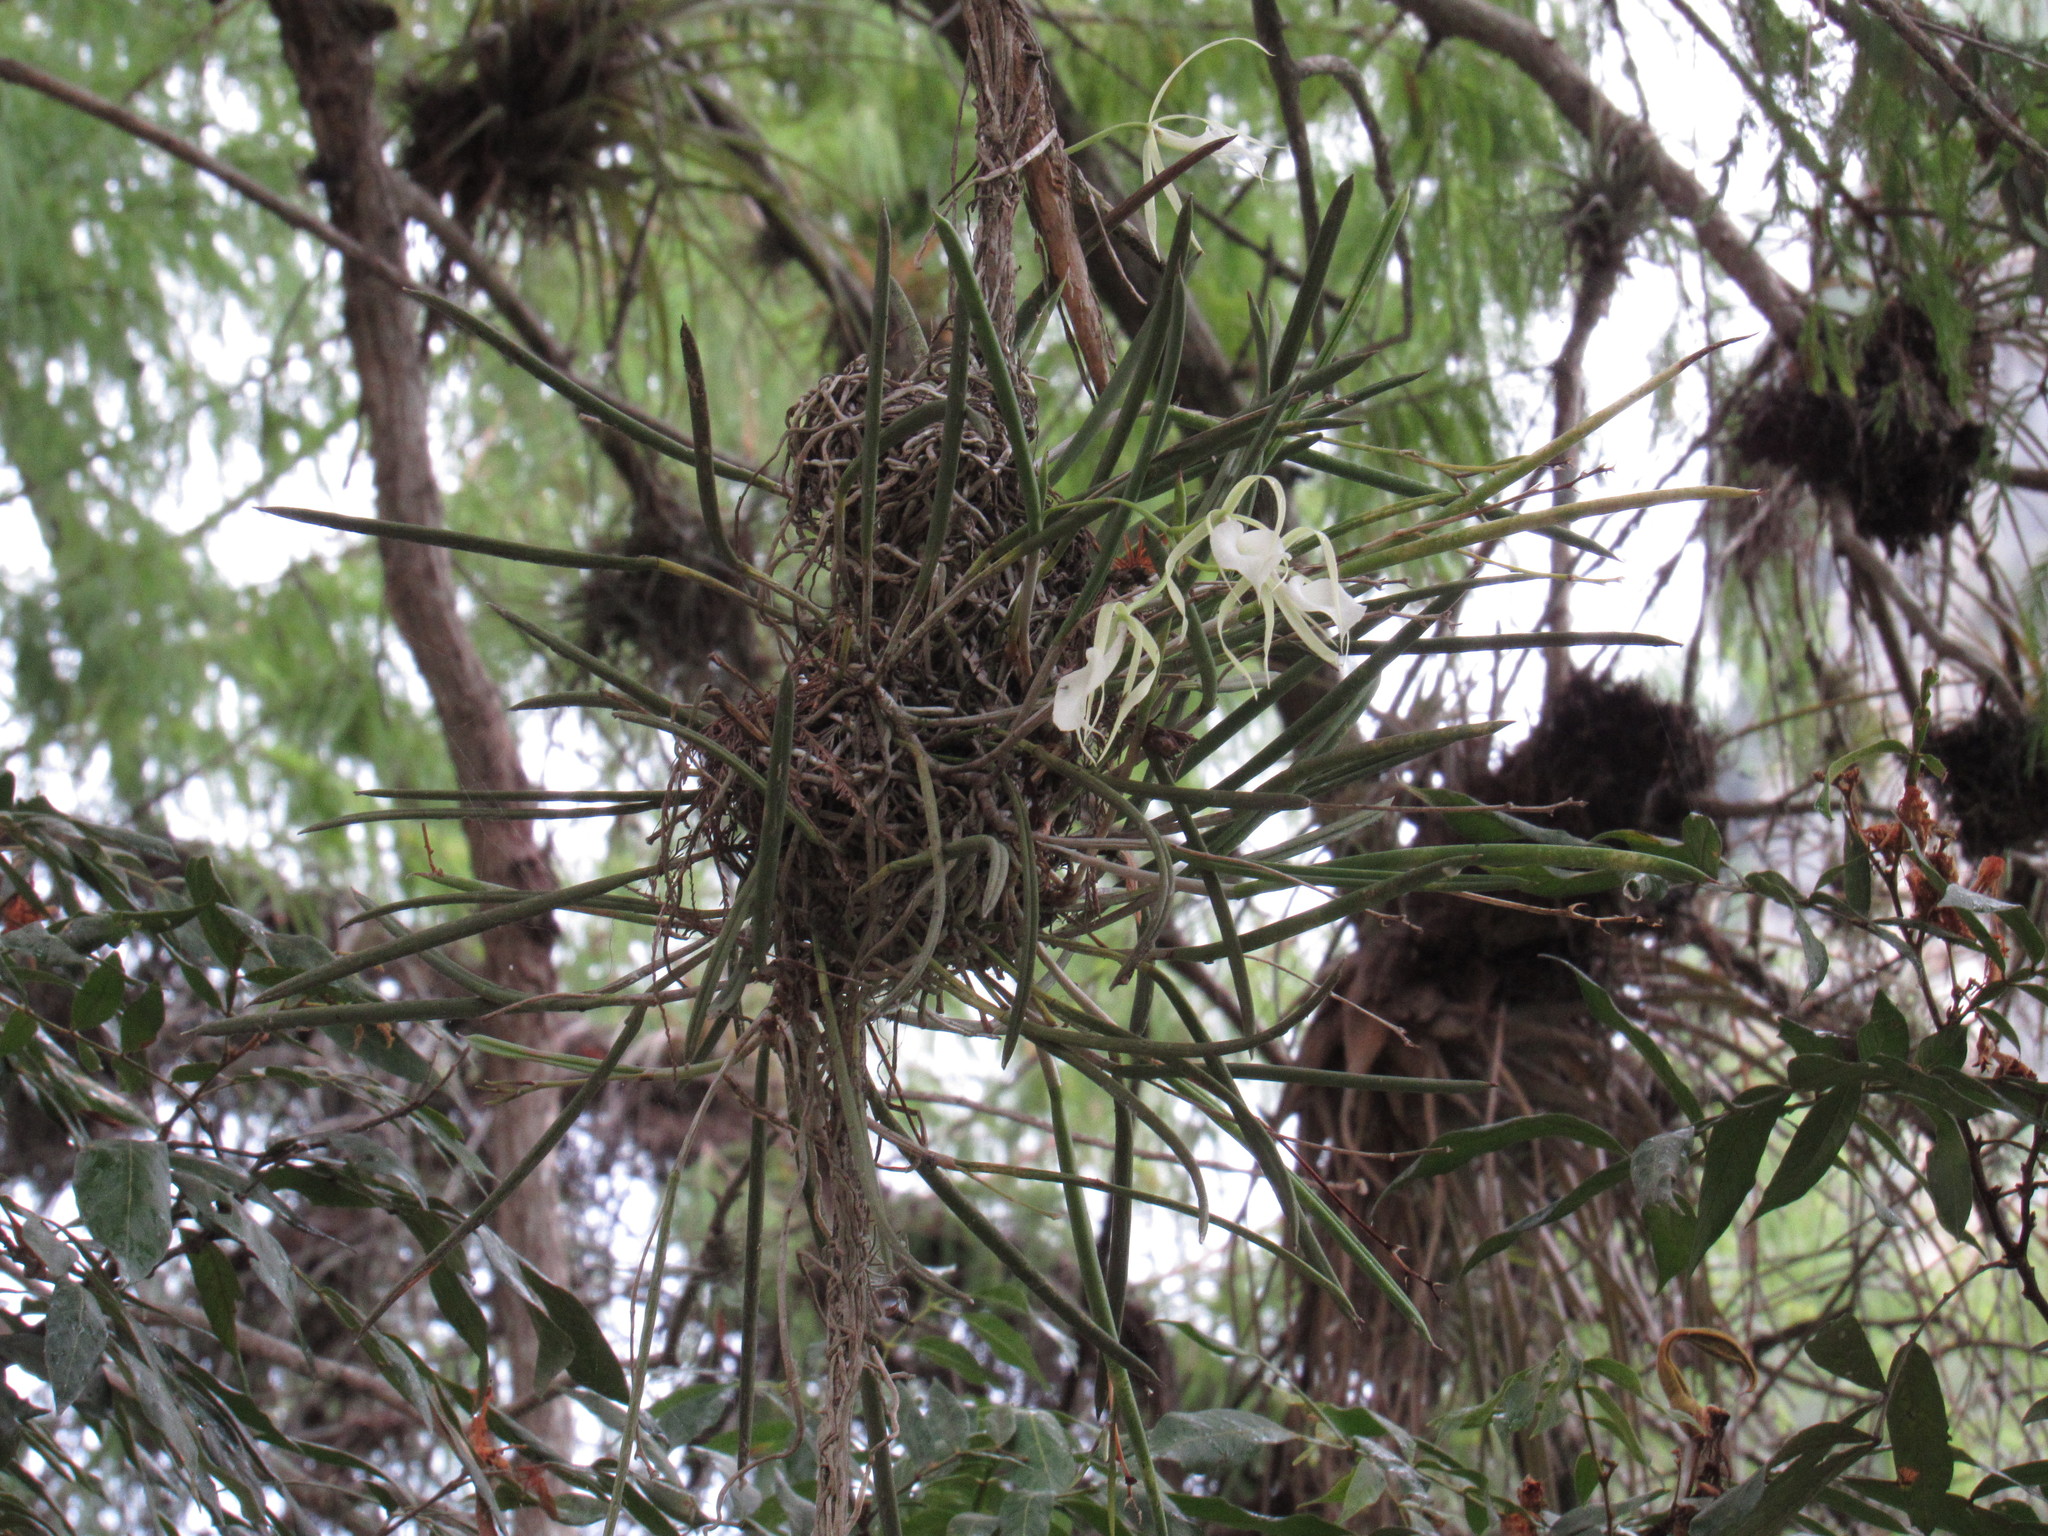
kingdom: Plantae
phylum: Tracheophyta
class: Liliopsida
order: Asparagales
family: Orchidaceae
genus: Brassavola
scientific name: Brassavola nodosa
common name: Lady of the night
